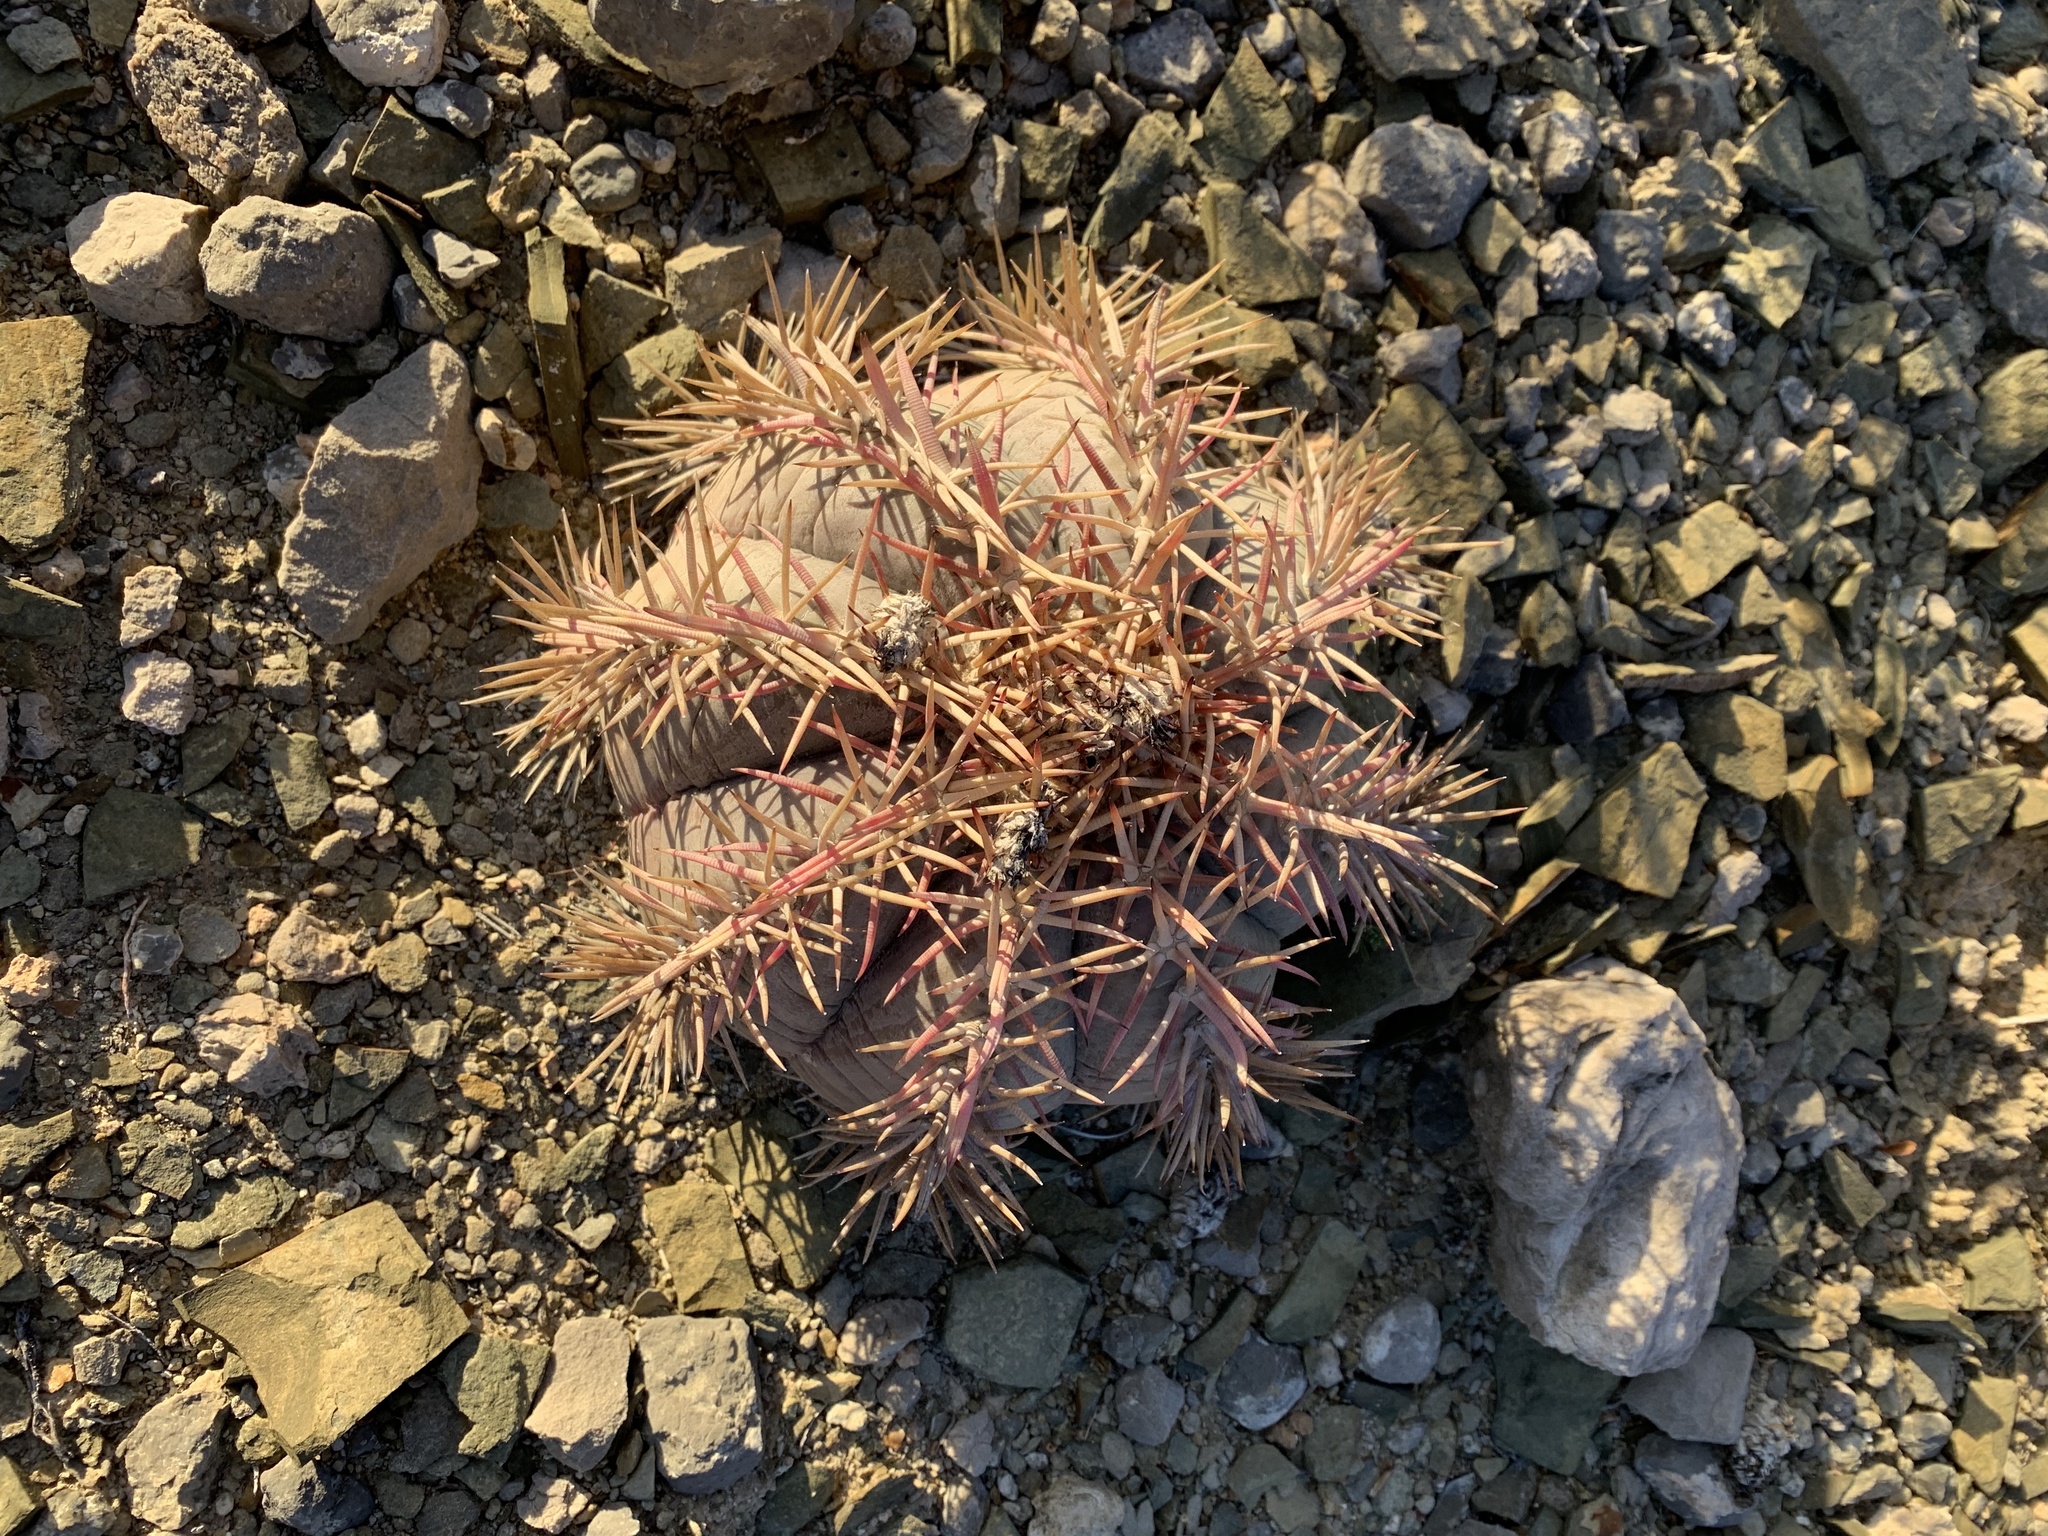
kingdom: Plantae
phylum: Tracheophyta
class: Magnoliopsida
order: Caryophyllales
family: Cactaceae
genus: Echinocactus
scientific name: Echinocactus horizonthalonius
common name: Devilshead
